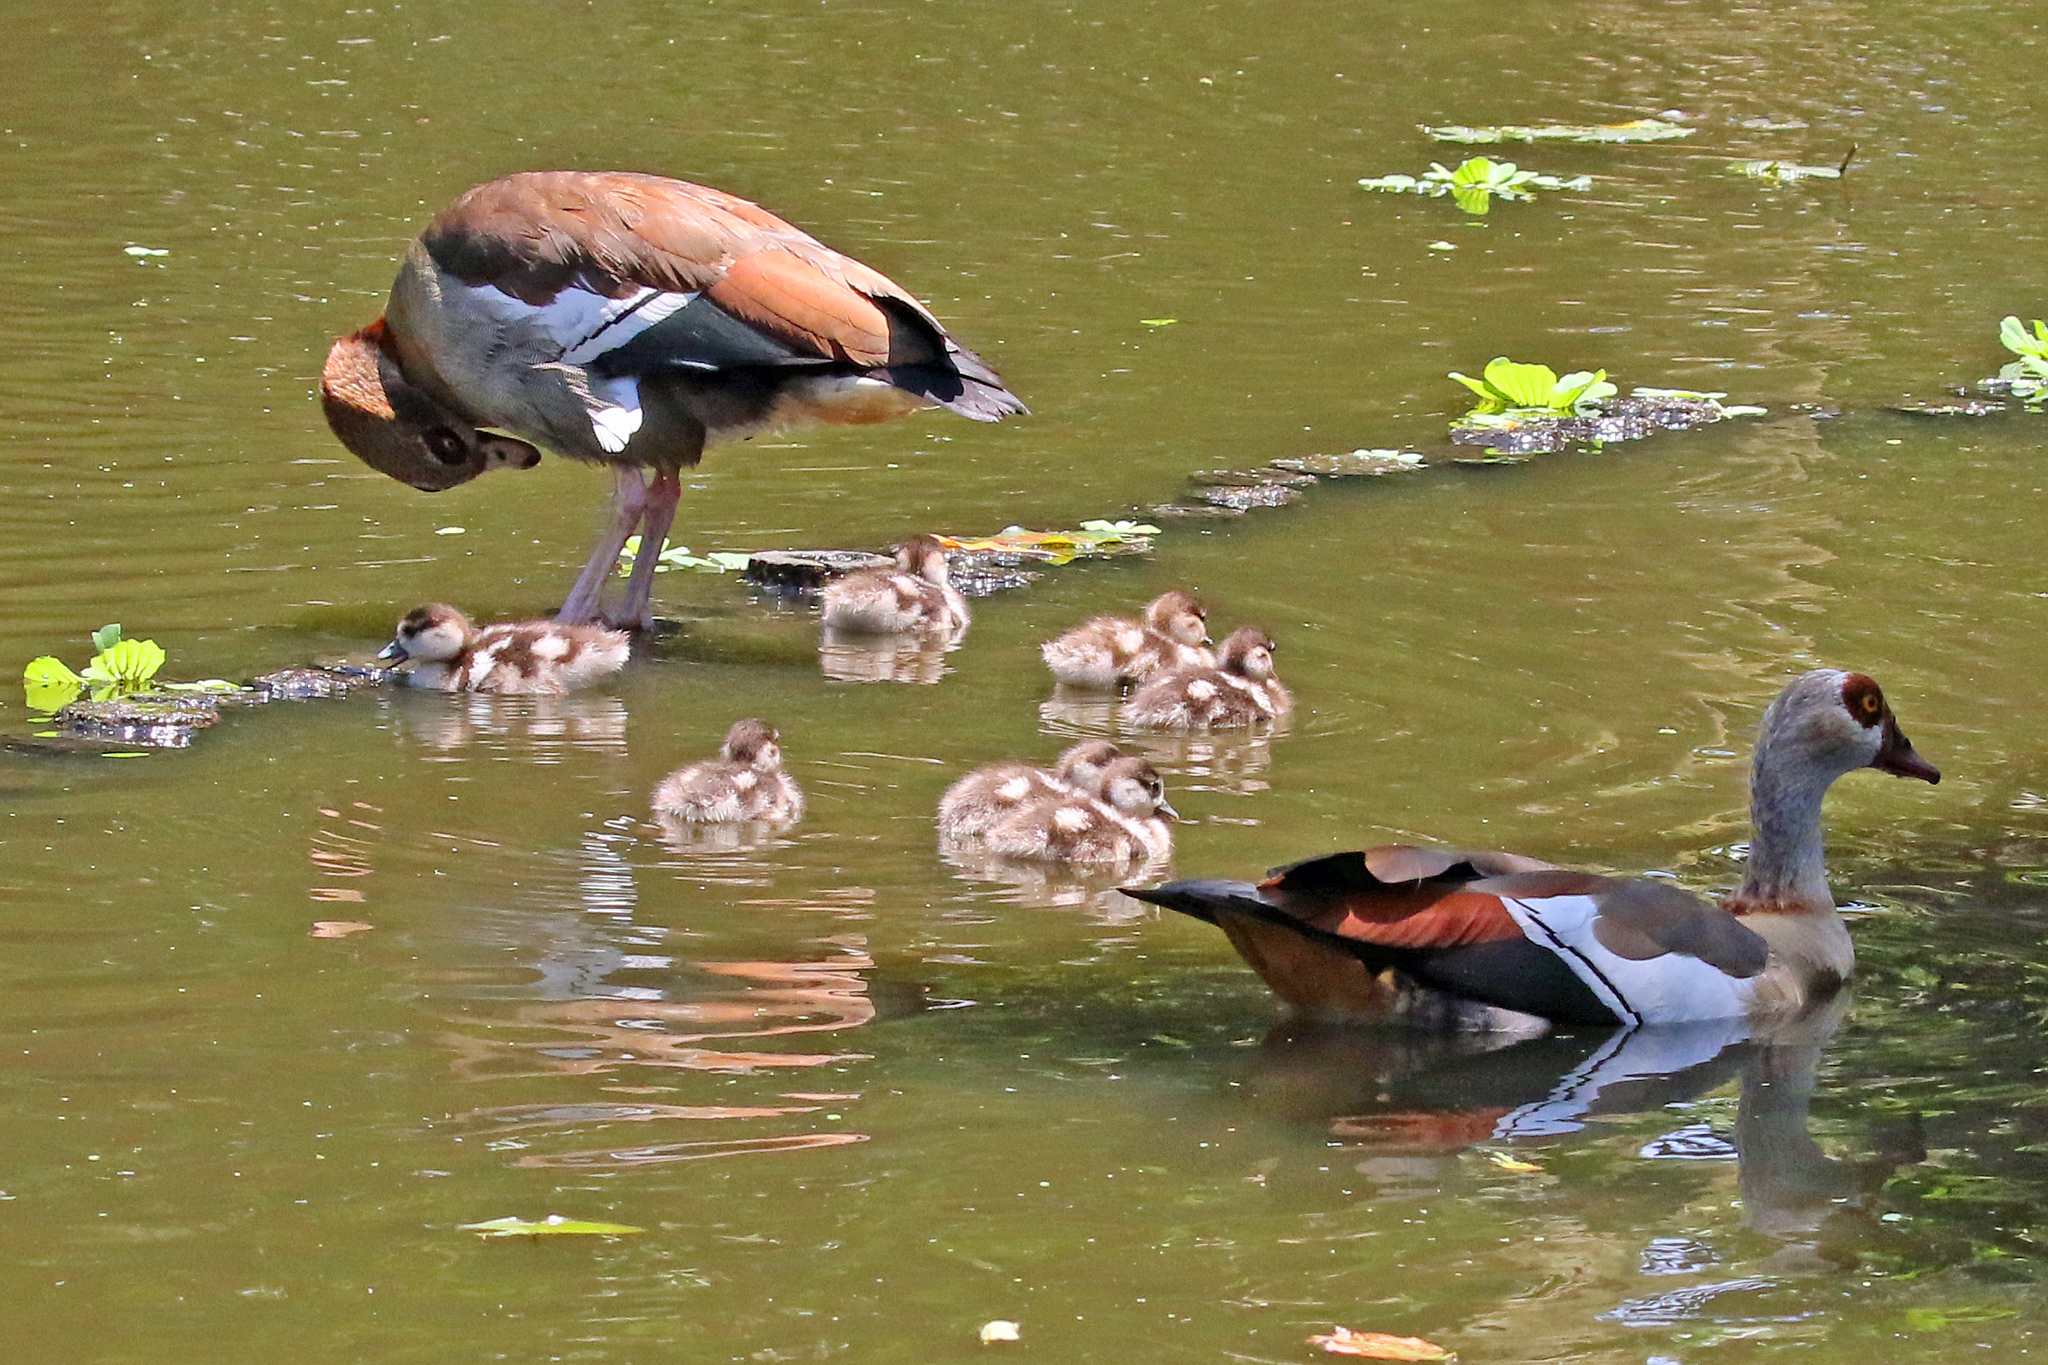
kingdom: Animalia
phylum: Chordata
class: Aves
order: Anseriformes
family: Anatidae
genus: Alopochen
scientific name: Alopochen aegyptiaca
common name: Egyptian goose
